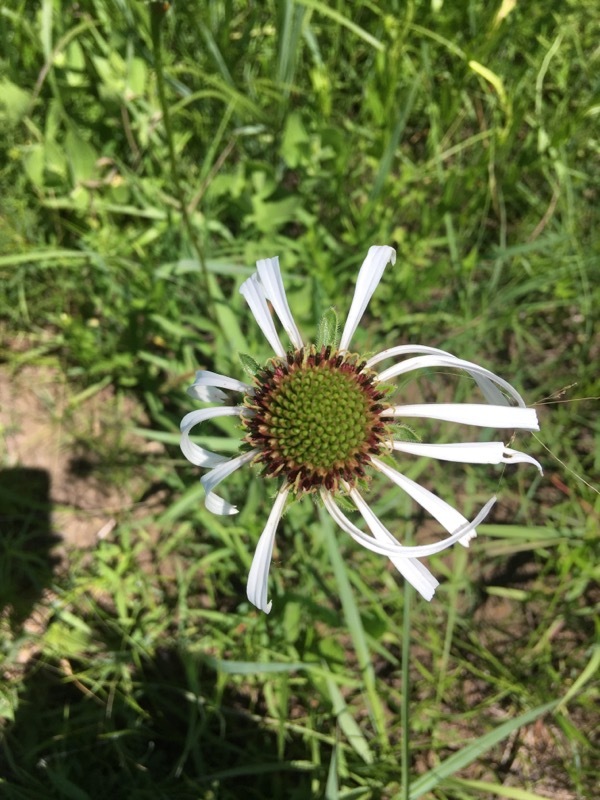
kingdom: Plantae
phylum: Tracheophyta
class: Magnoliopsida
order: Asterales
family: Asteraceae
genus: Echinacea
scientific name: Echinacea pallida
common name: Pale echinacea
